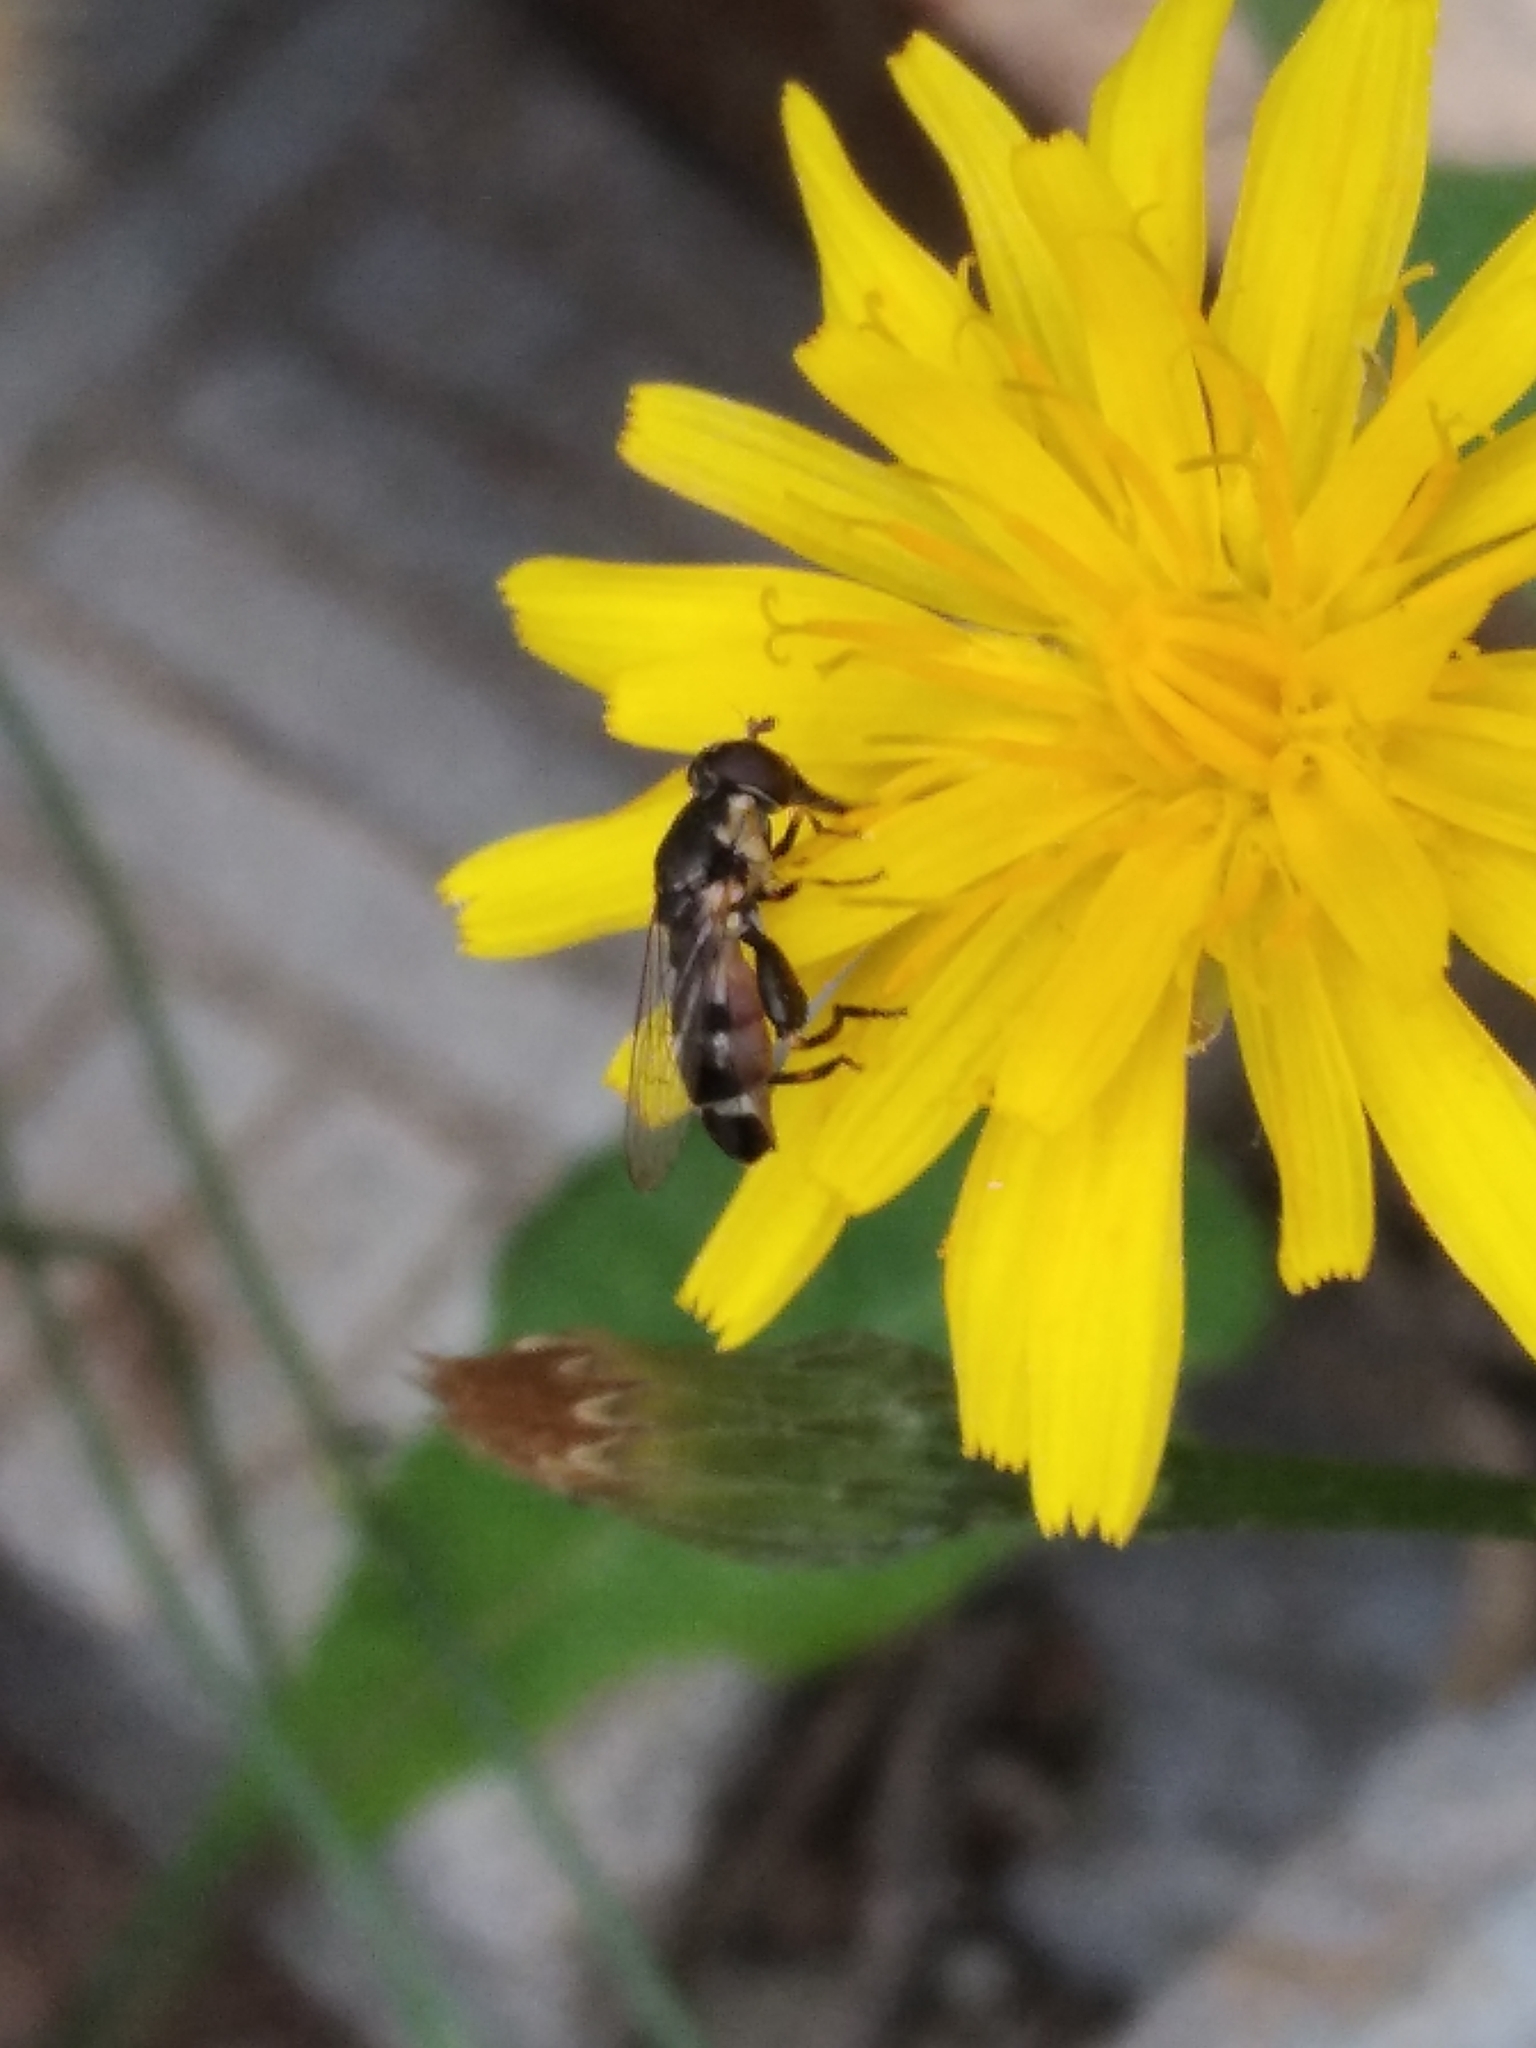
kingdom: Animalia
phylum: Arthropoda
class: Insecta
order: Diptera
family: Syrphidae
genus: Syritta
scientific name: Syritta pipiens
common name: Hover fly
